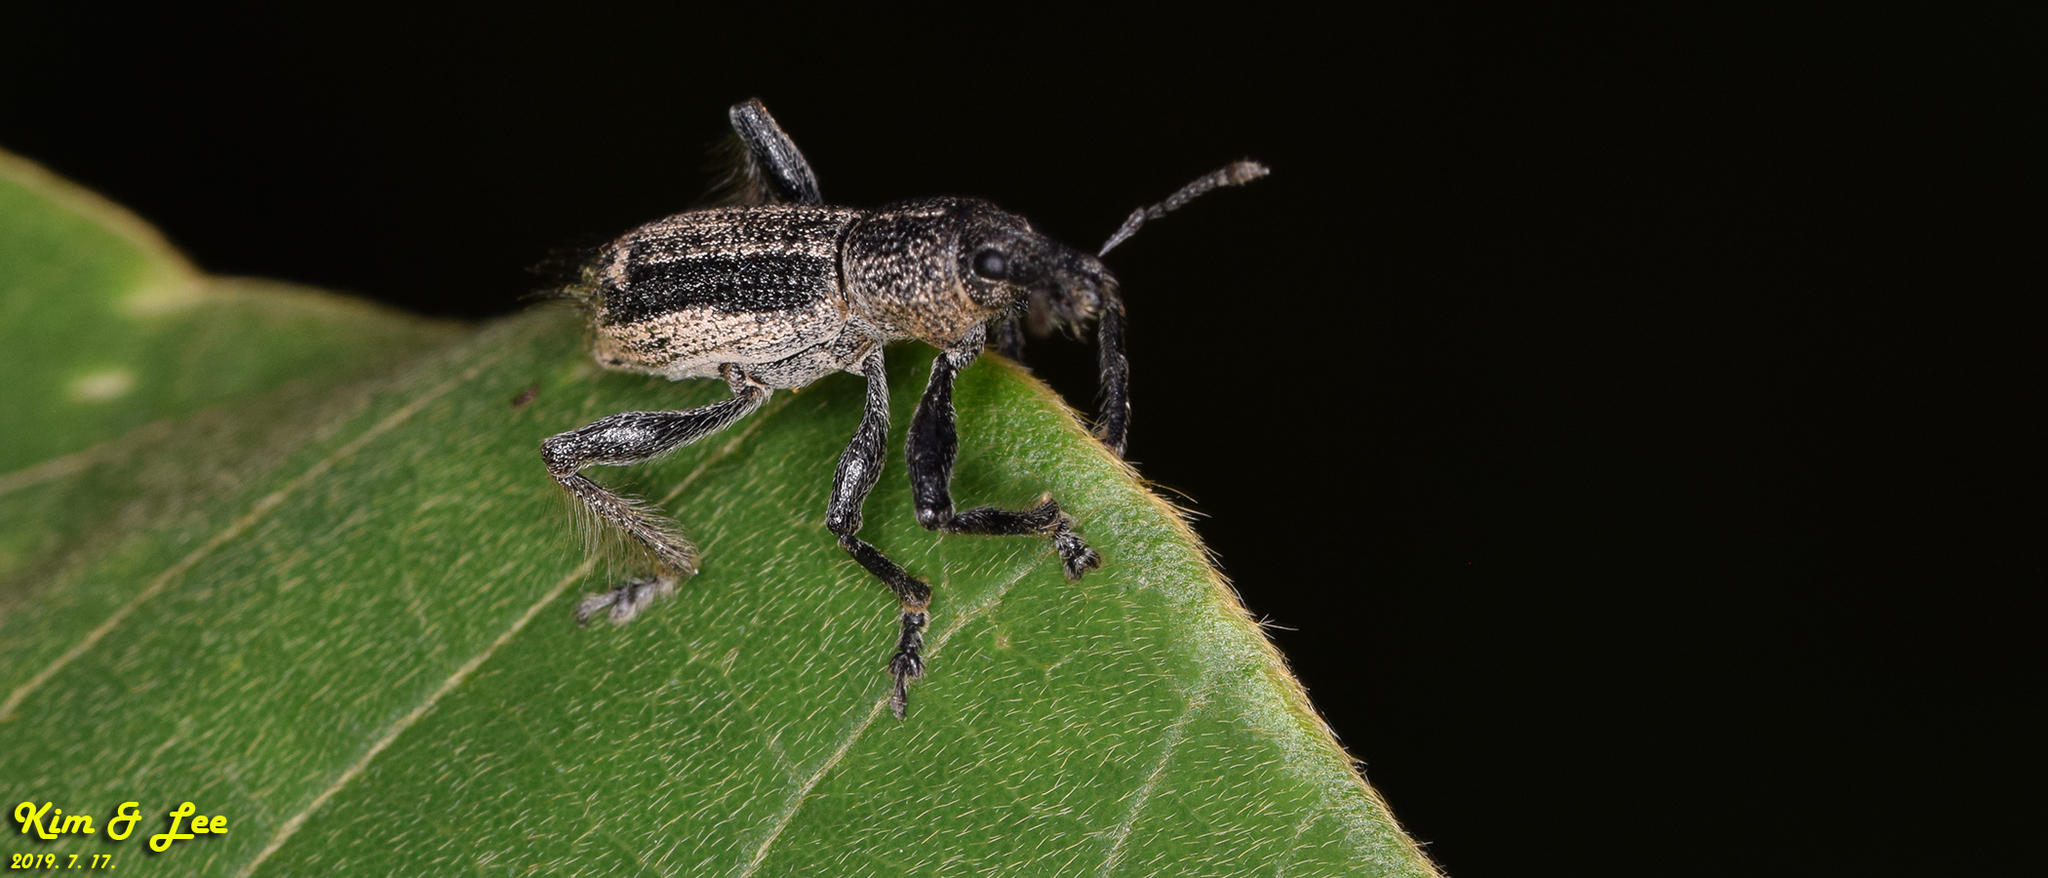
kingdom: Animalia
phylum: Arthropoda
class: Insecta
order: Coleoptera
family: Curculionidae
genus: Enaptorhinus
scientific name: Enaptorhinus granulatus
